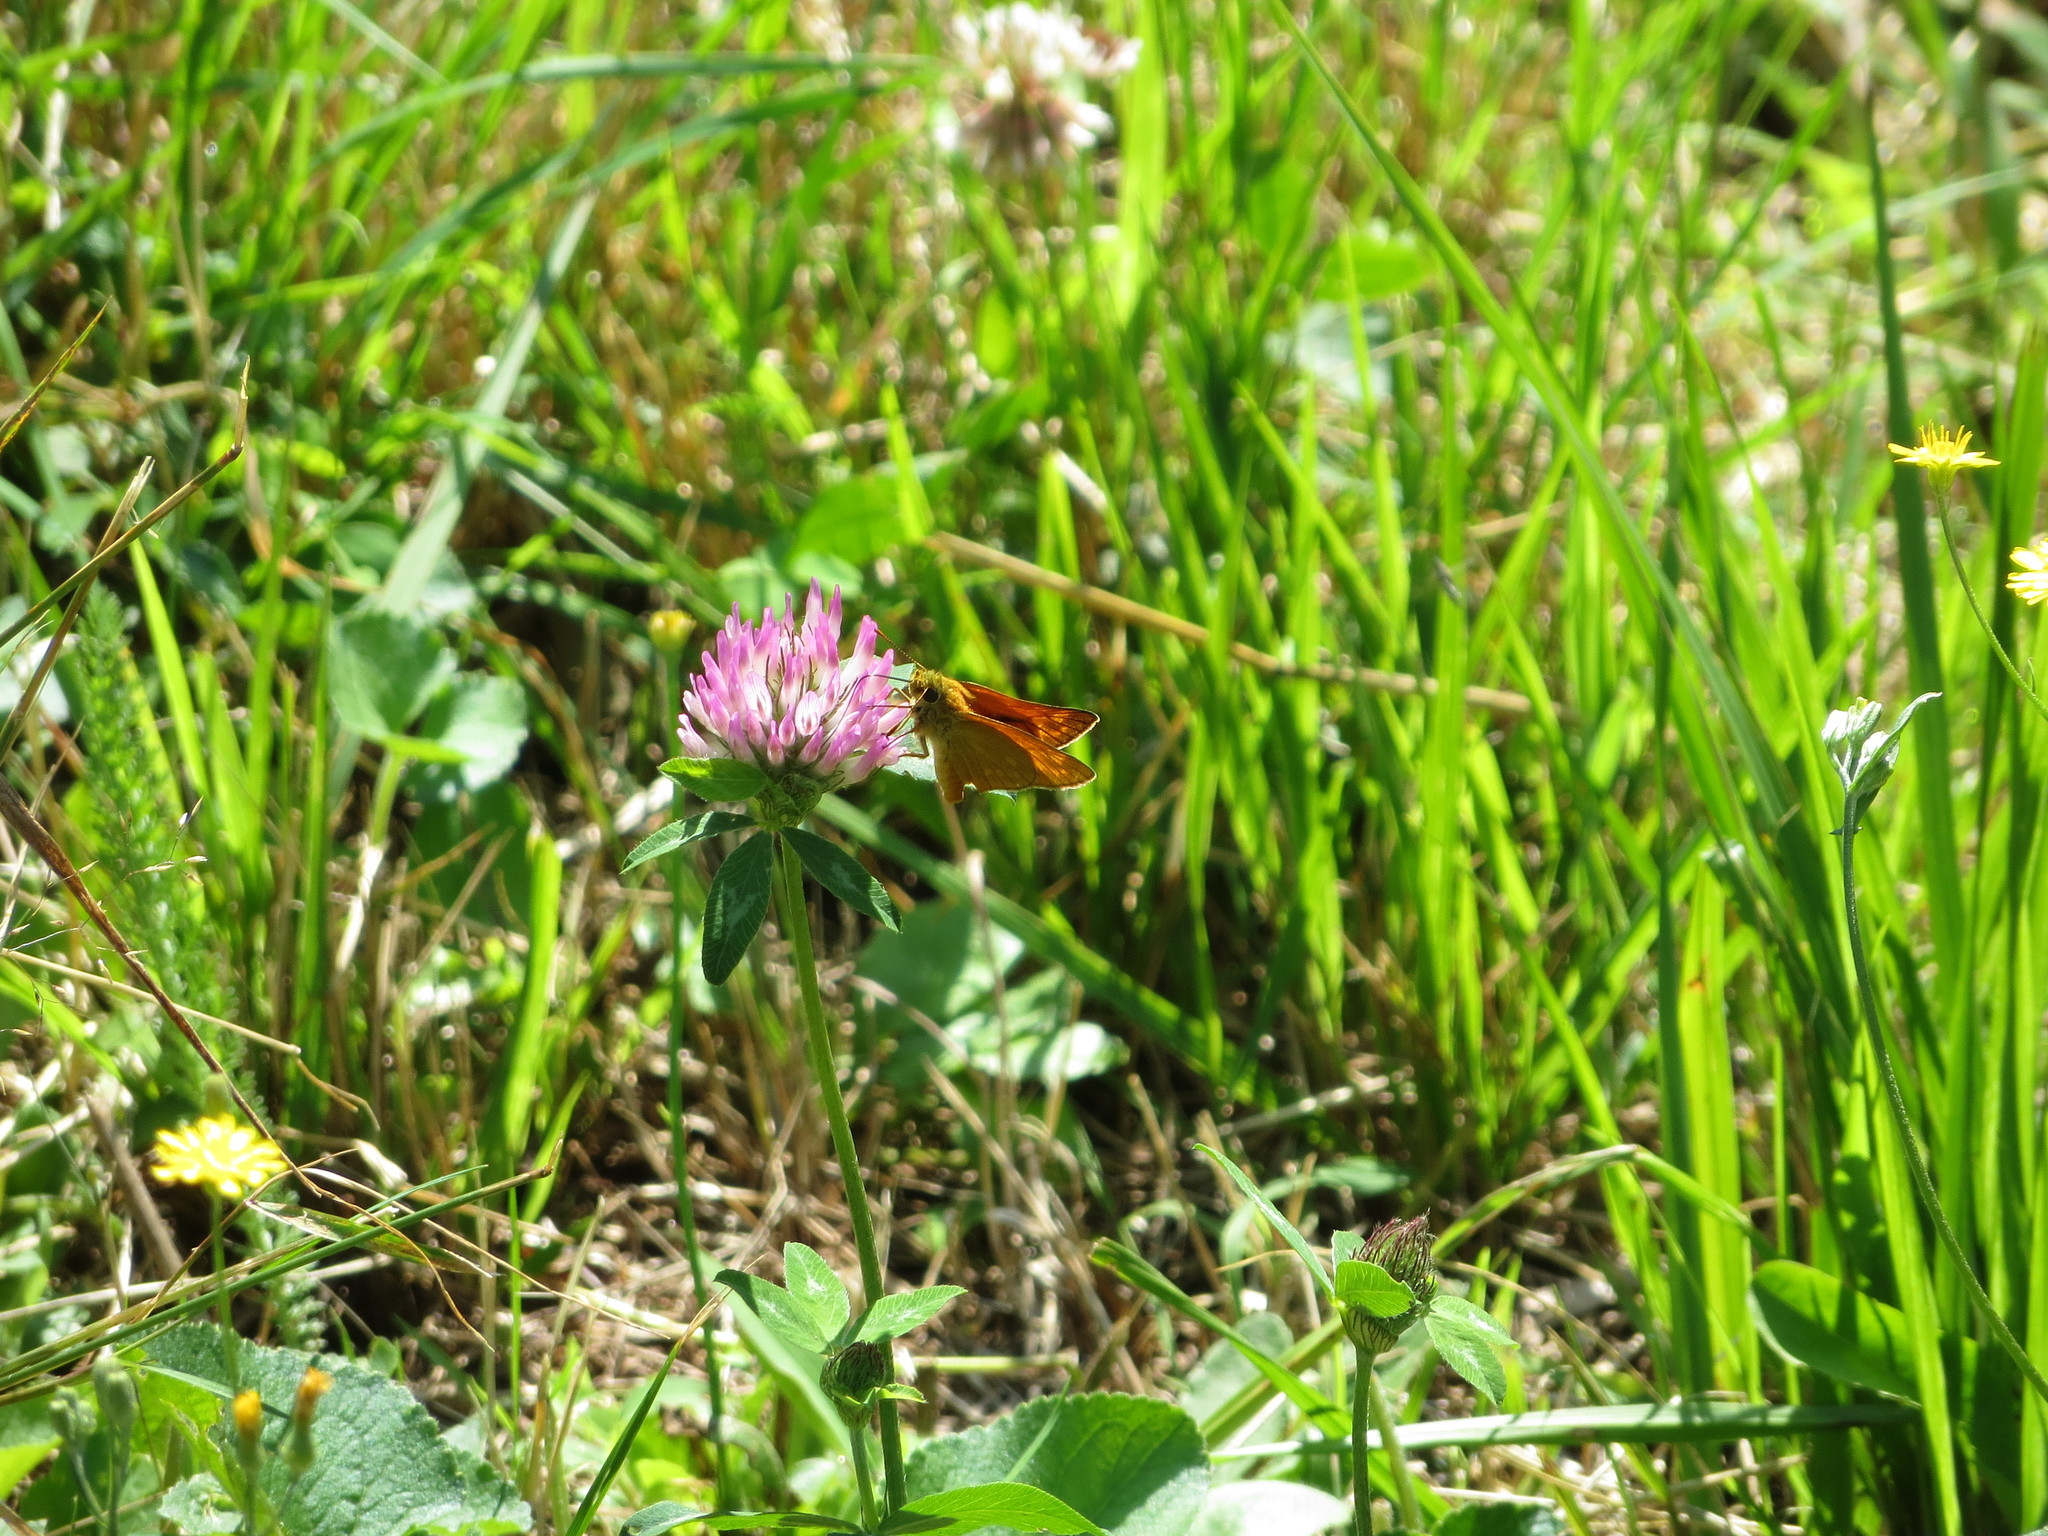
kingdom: Animalia
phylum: Arthropoda
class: Insecta
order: Lepidoptera
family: Hesperiidae
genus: Ochlodes
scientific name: Ochlodes venata
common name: Large skipper
